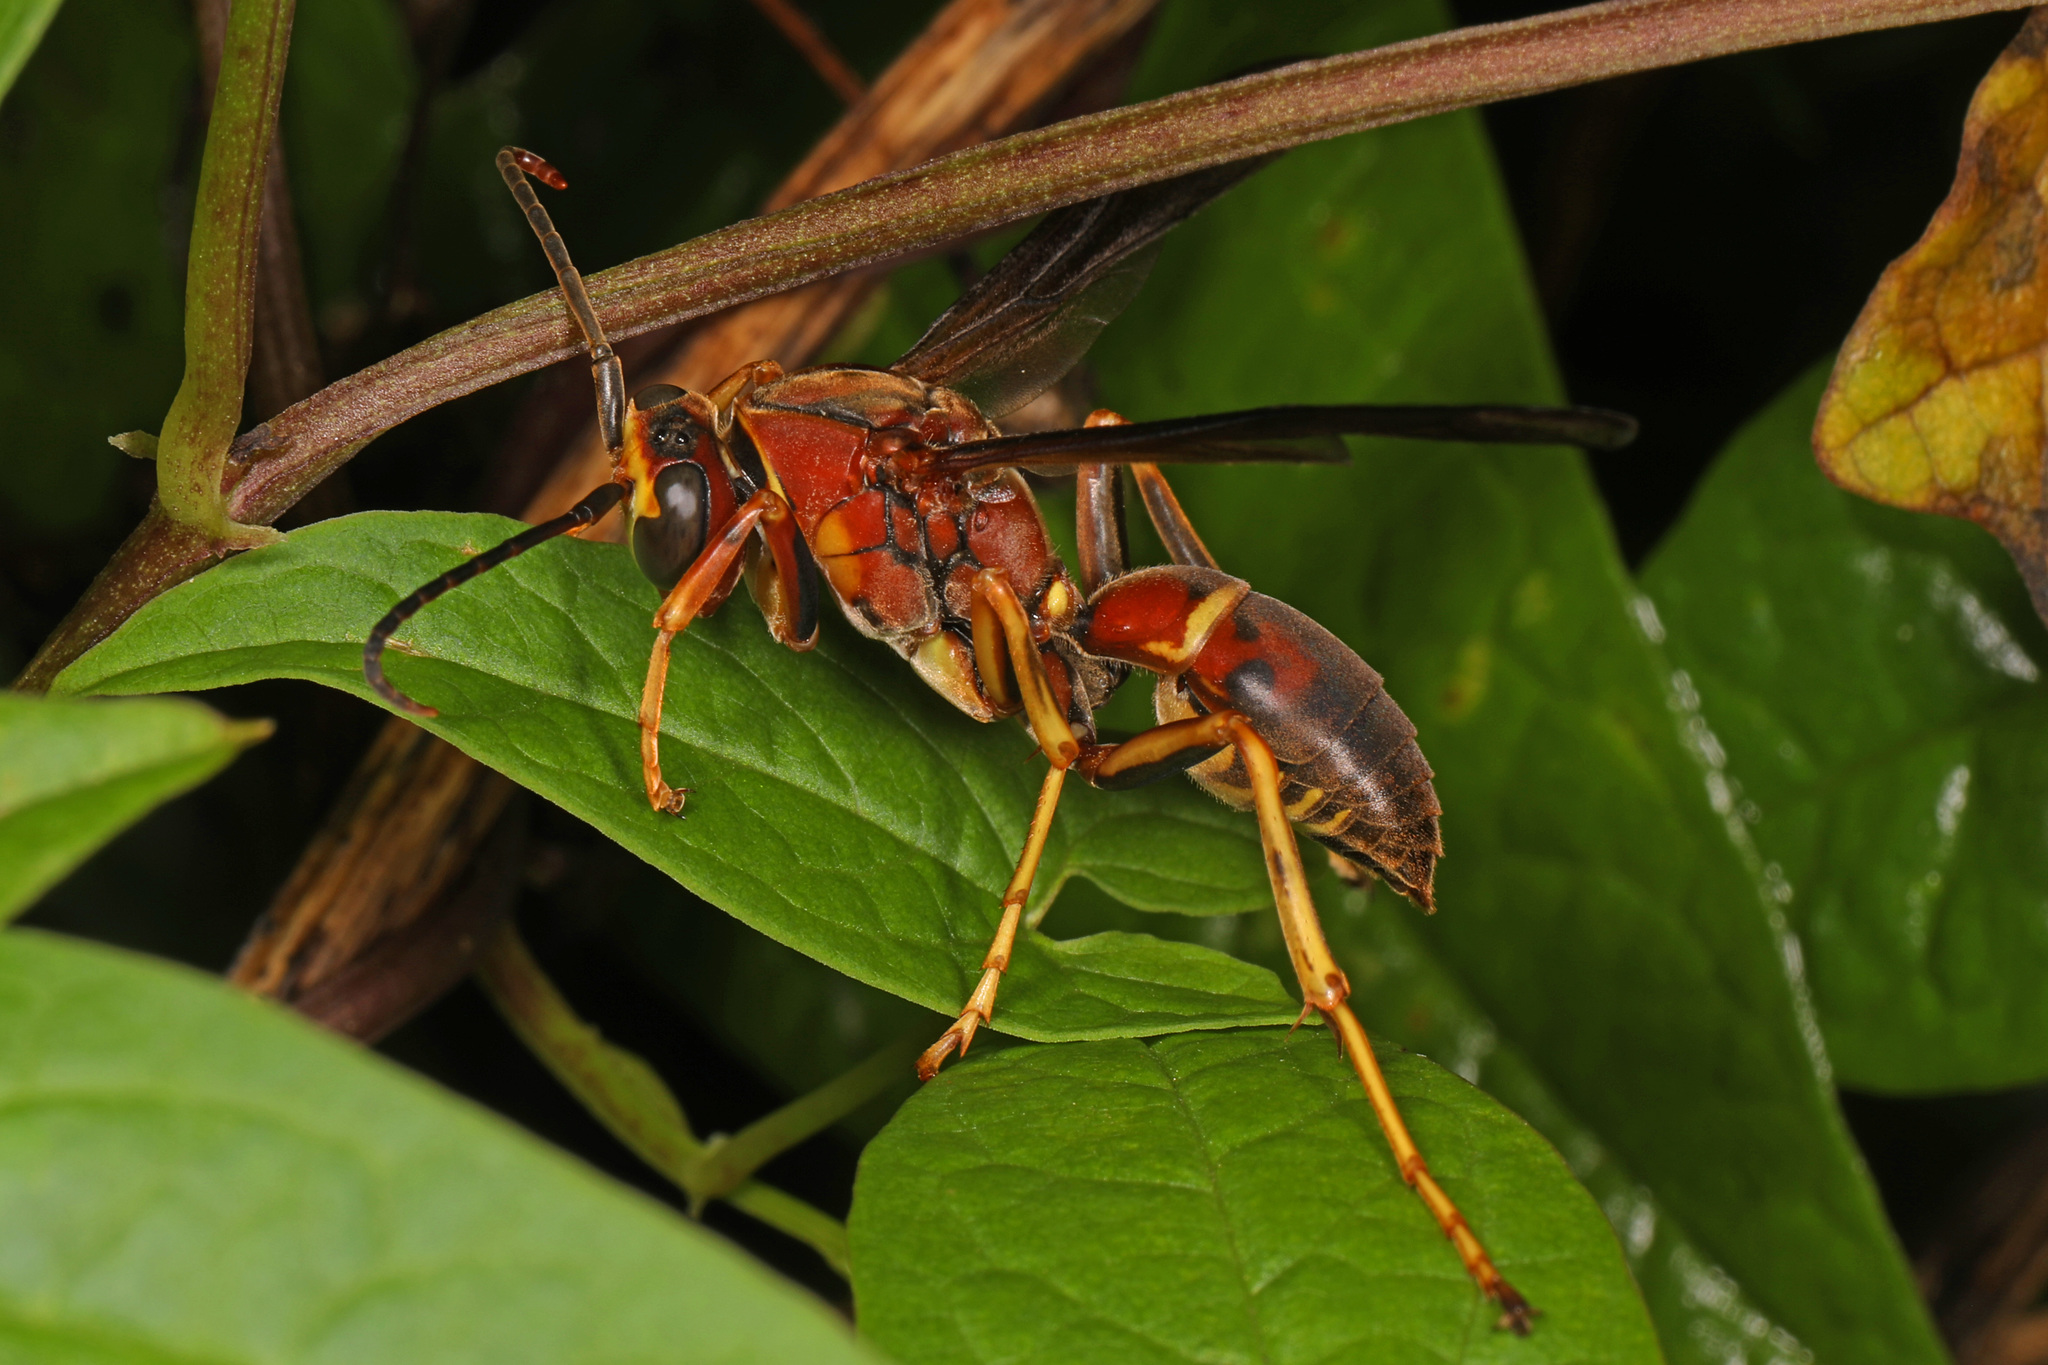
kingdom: Animalia
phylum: Arthropoda
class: Insecta
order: Hymenoptera
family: Eumenidae
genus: Polistes
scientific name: Polistes metricus
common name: Metric paper wasp
